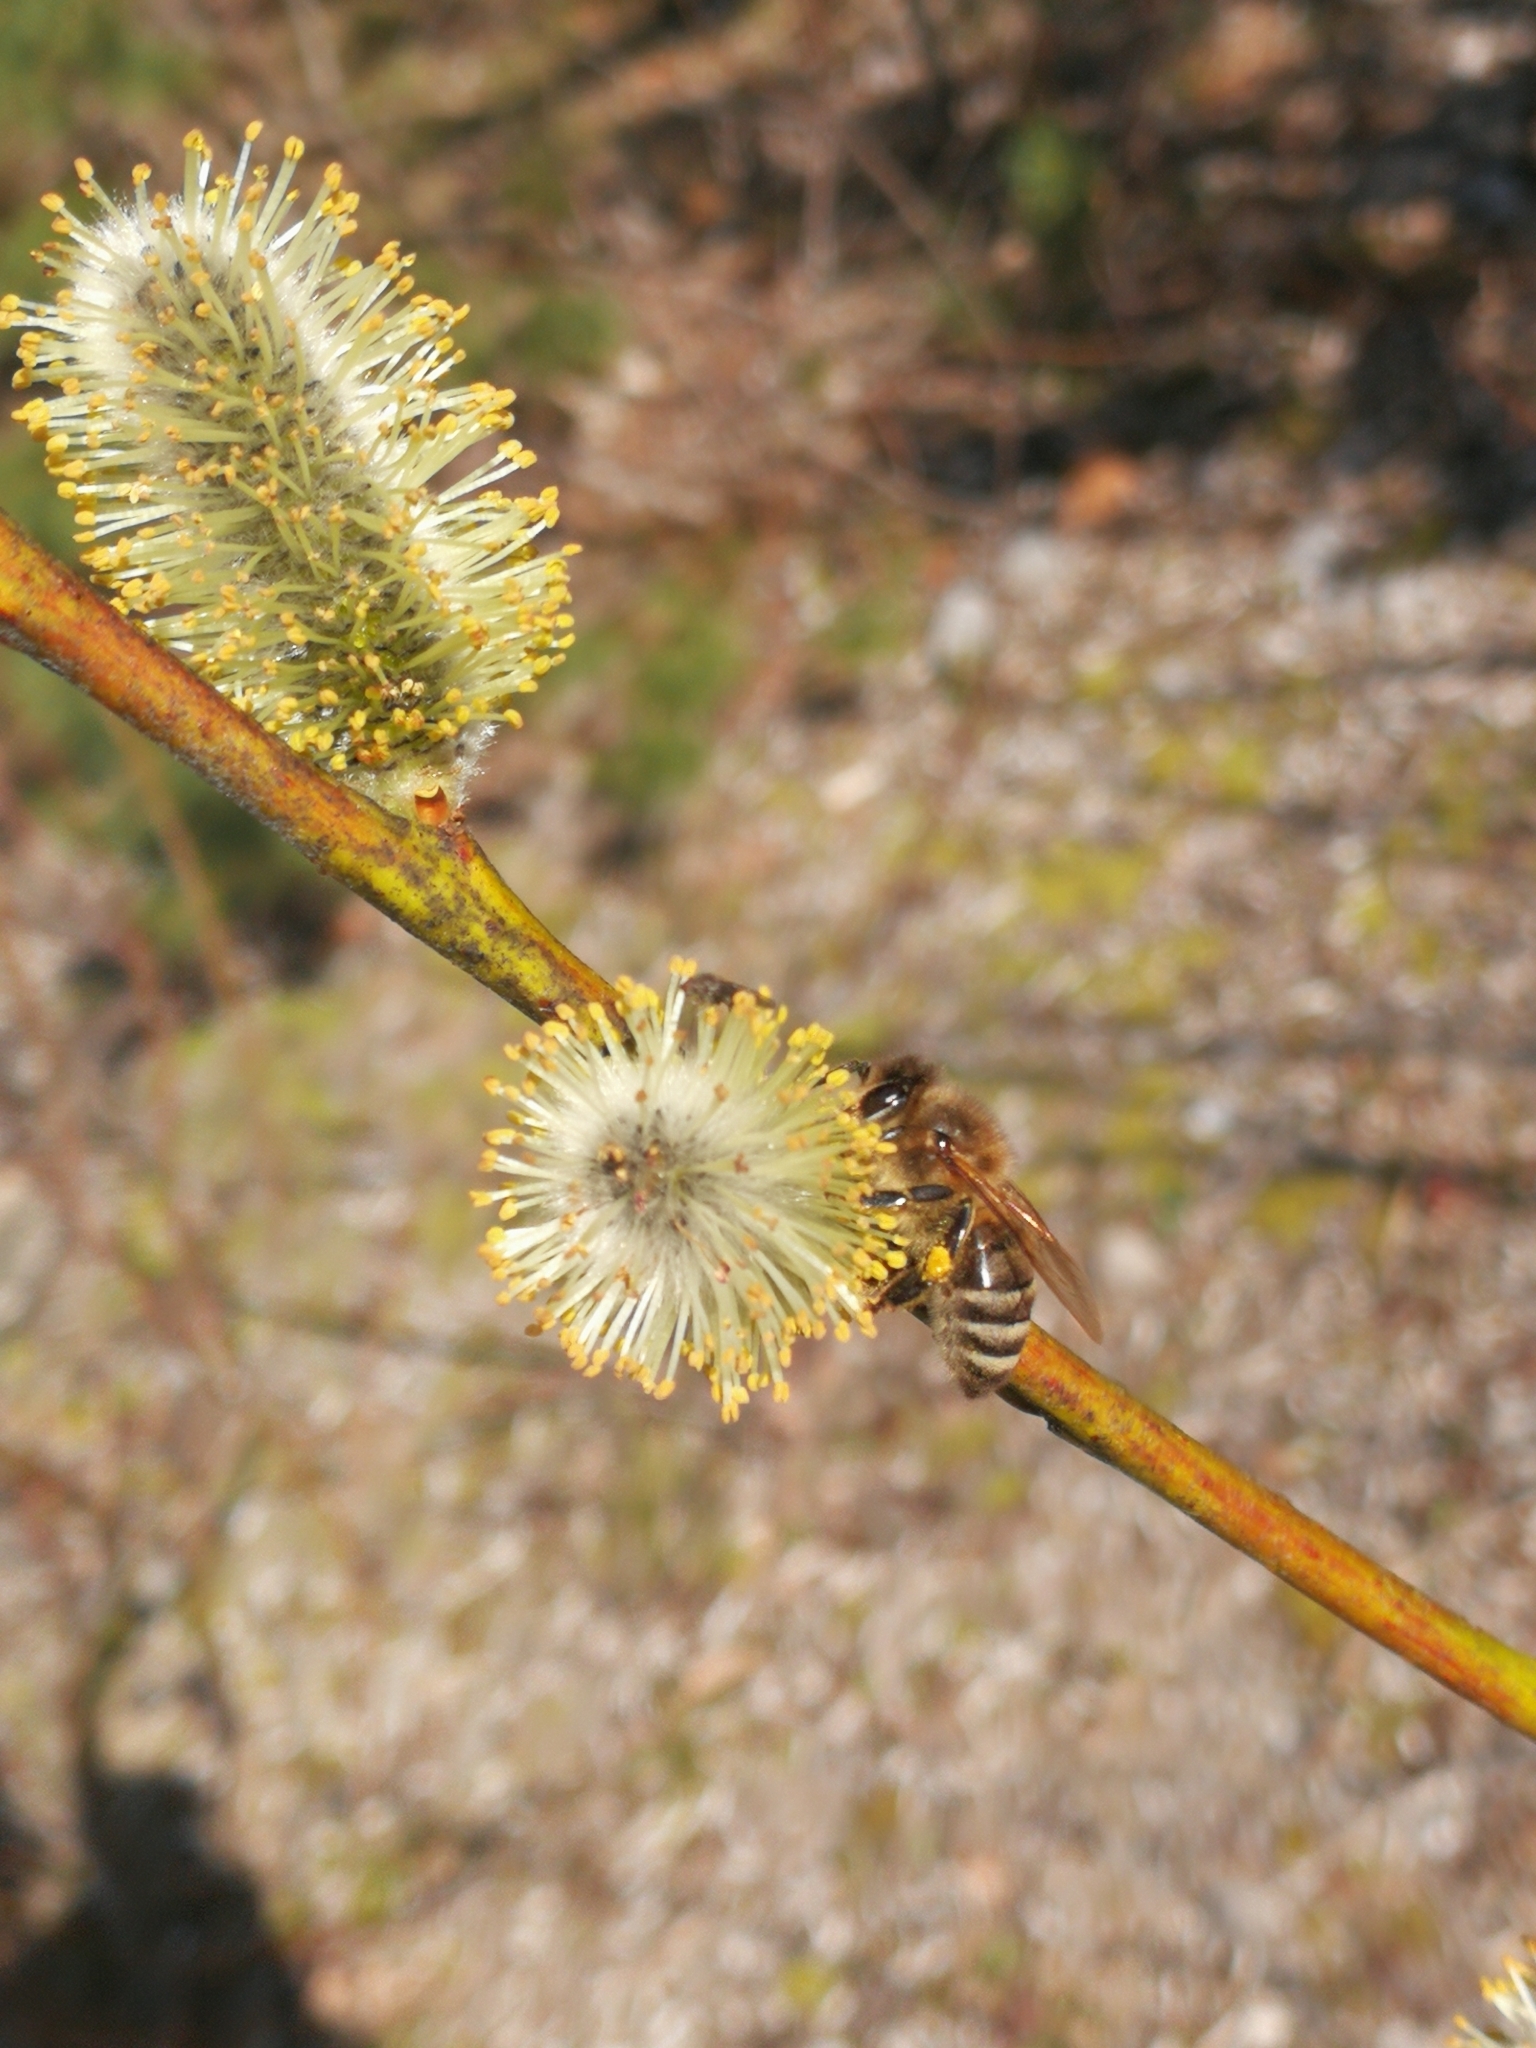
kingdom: Animalia
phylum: Arthropoda
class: Insecta
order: Hymenoptera
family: Apidae
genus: Apis
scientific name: Apis mellifera
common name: Honey bee
